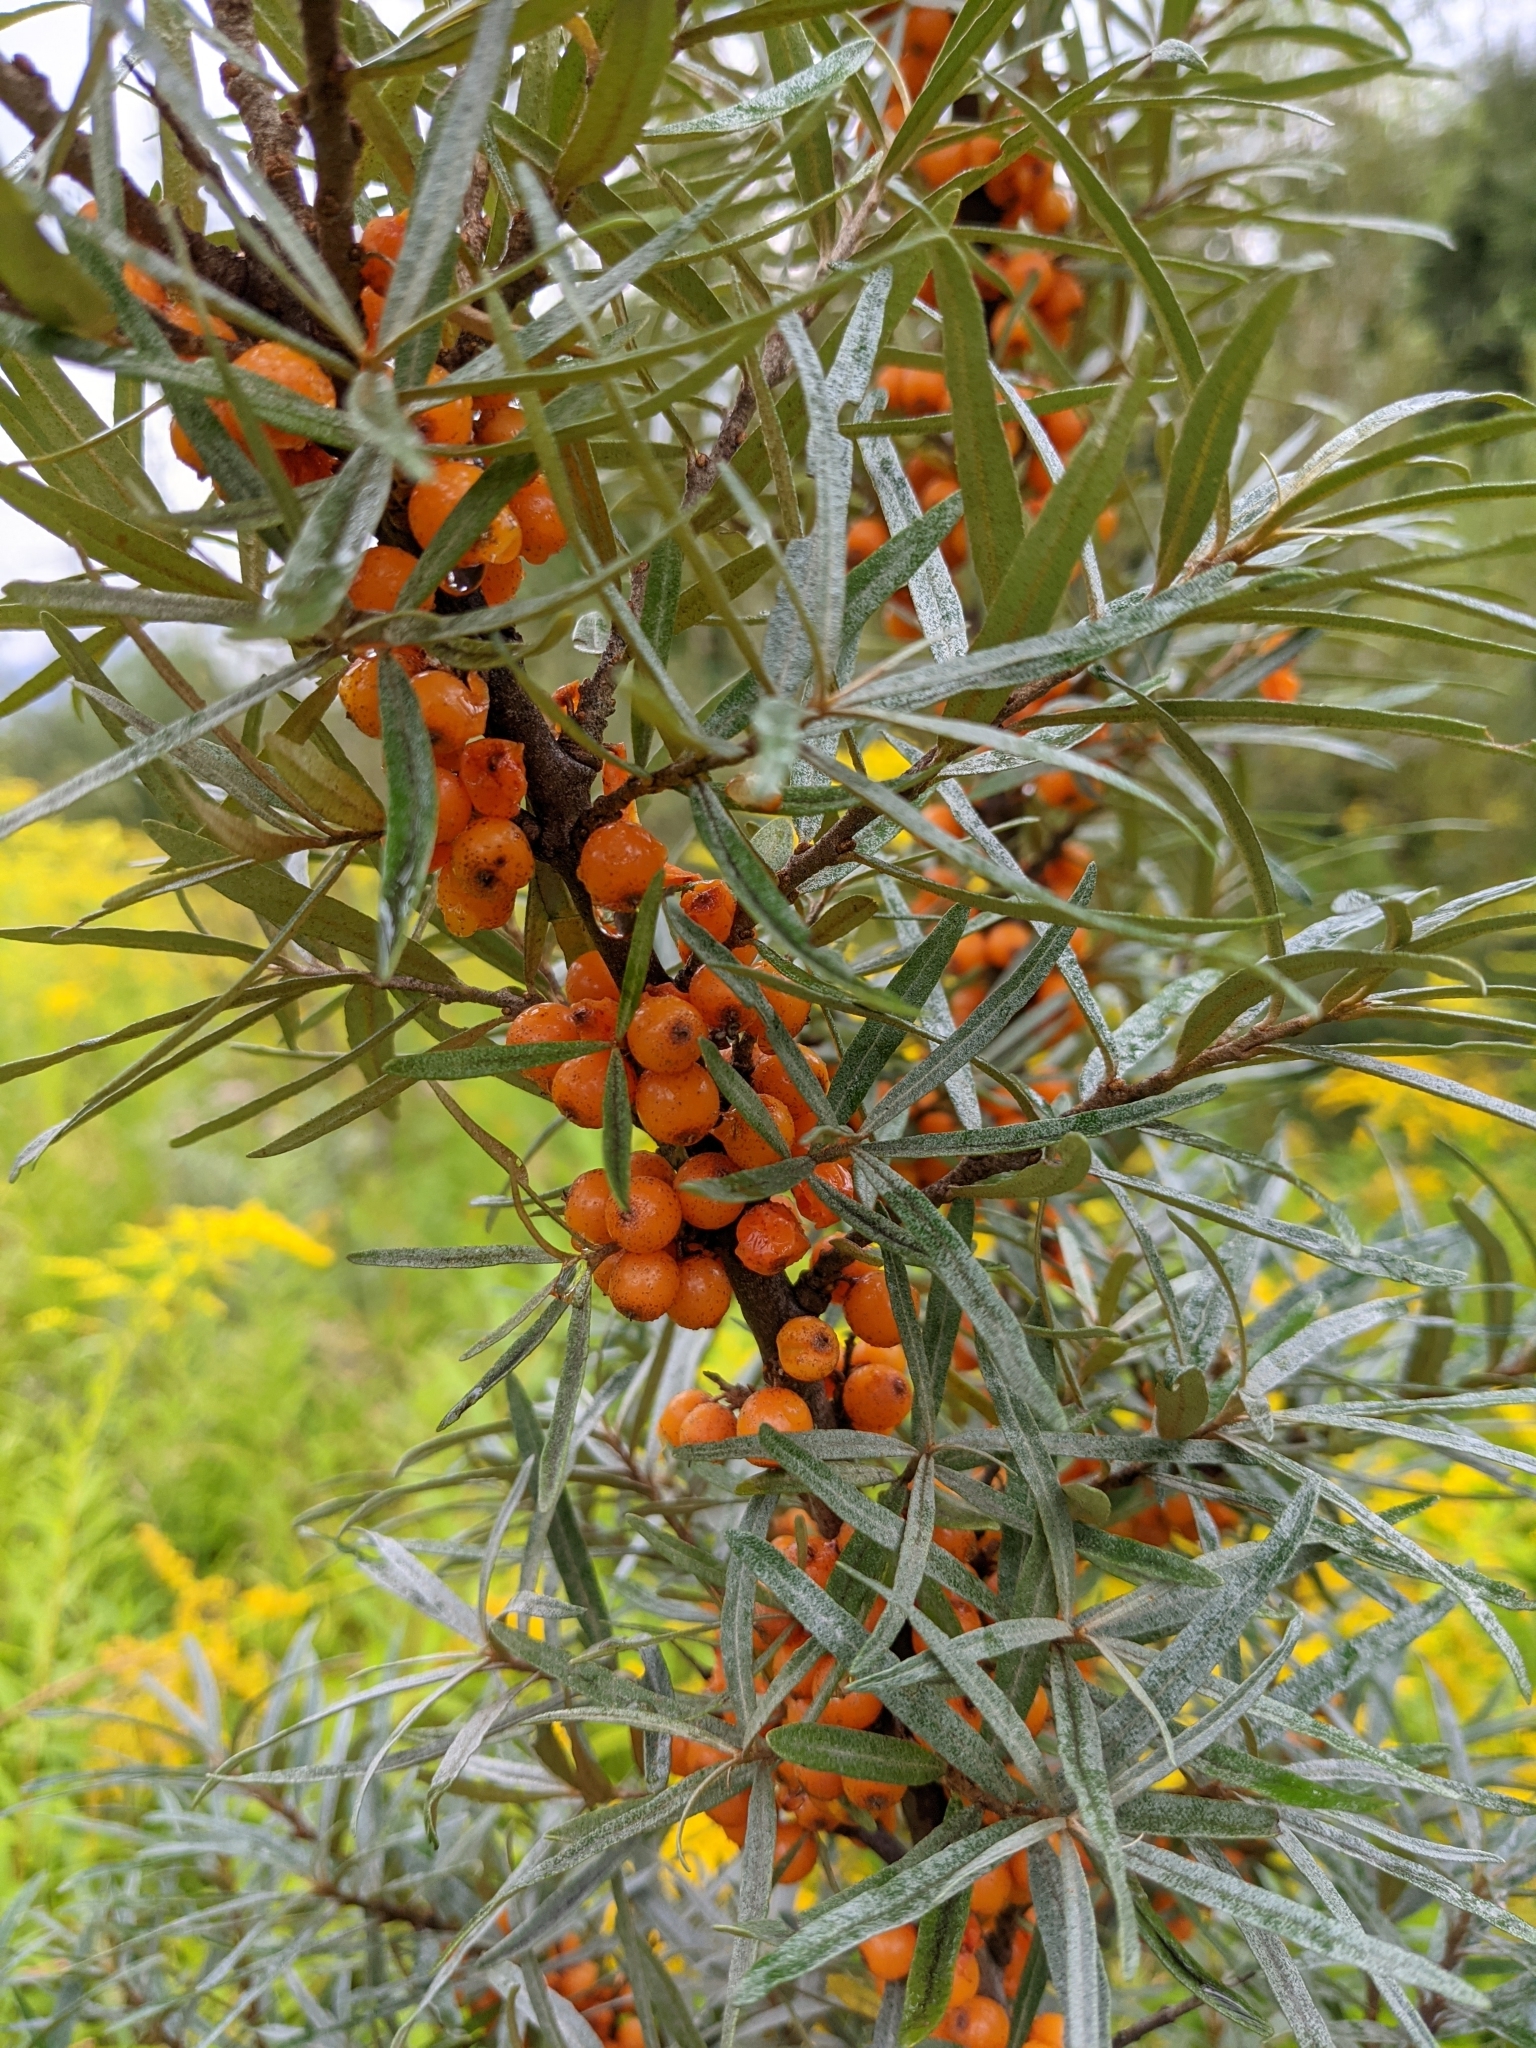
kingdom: Plantae
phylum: Tracheophyta
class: Magnoliopsida
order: Rosales
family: Elaeagnaceae
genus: Hippophae
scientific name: Hippophae rhamnoides
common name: Sea-buckthorn
